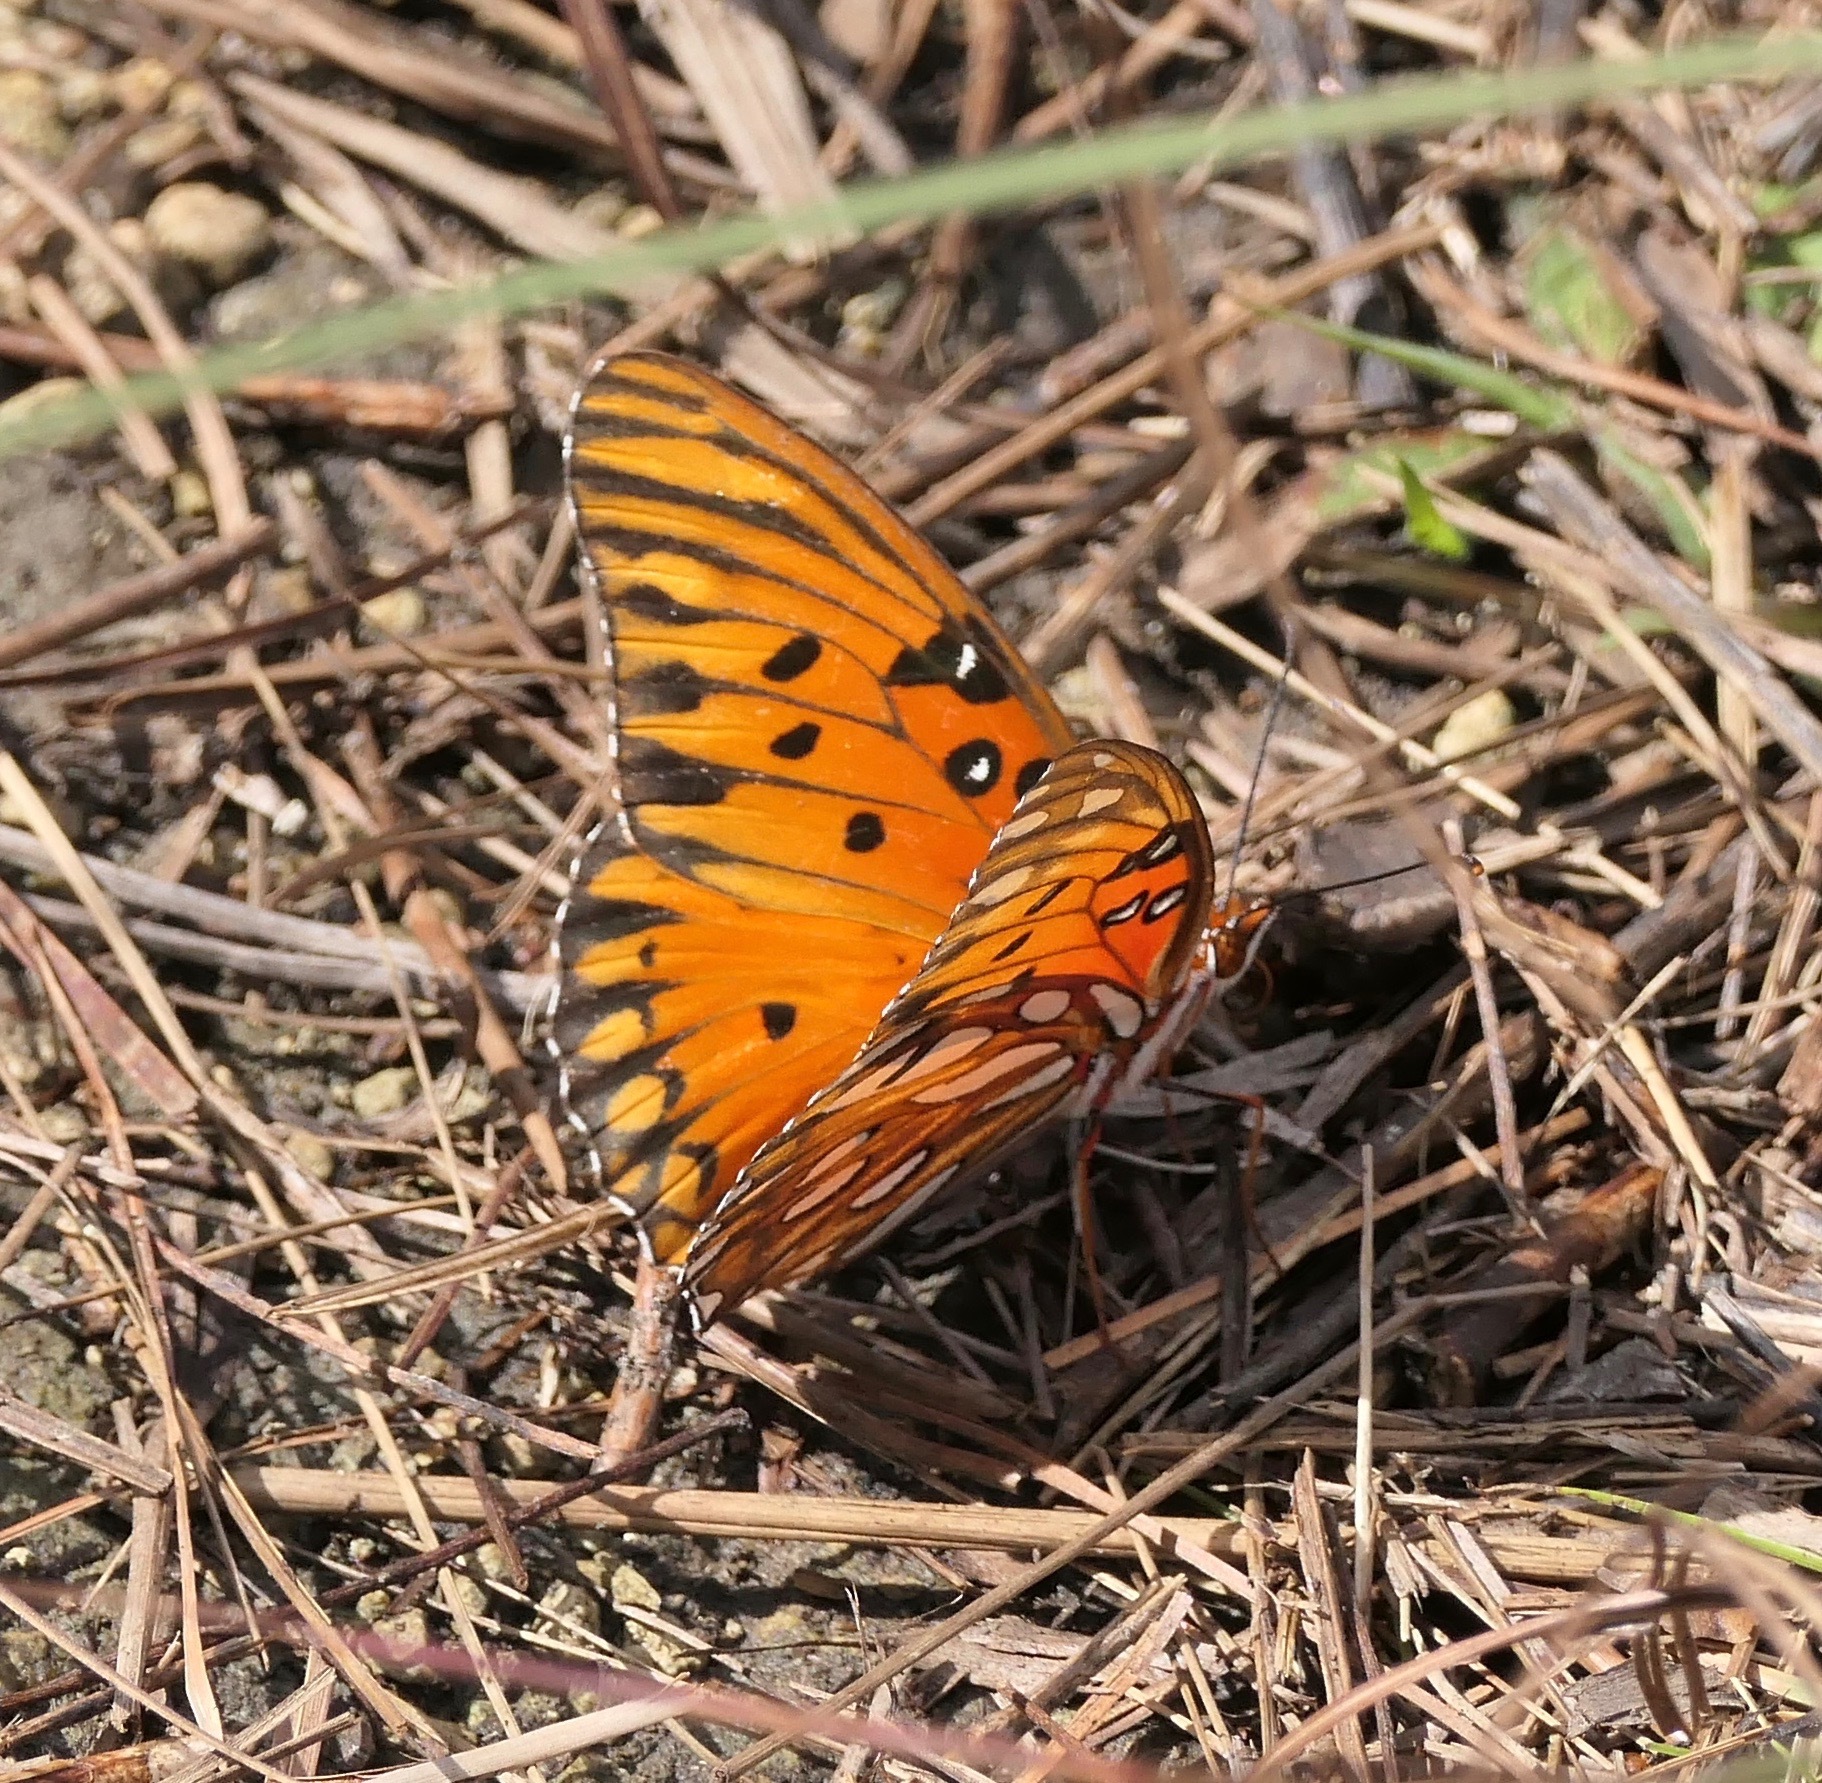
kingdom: Animalia
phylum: Arthropoda
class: Insecta
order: Lepidoptera
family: Nymphalidae
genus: Dione
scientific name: Dione vanillae
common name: Gulf fritillary
